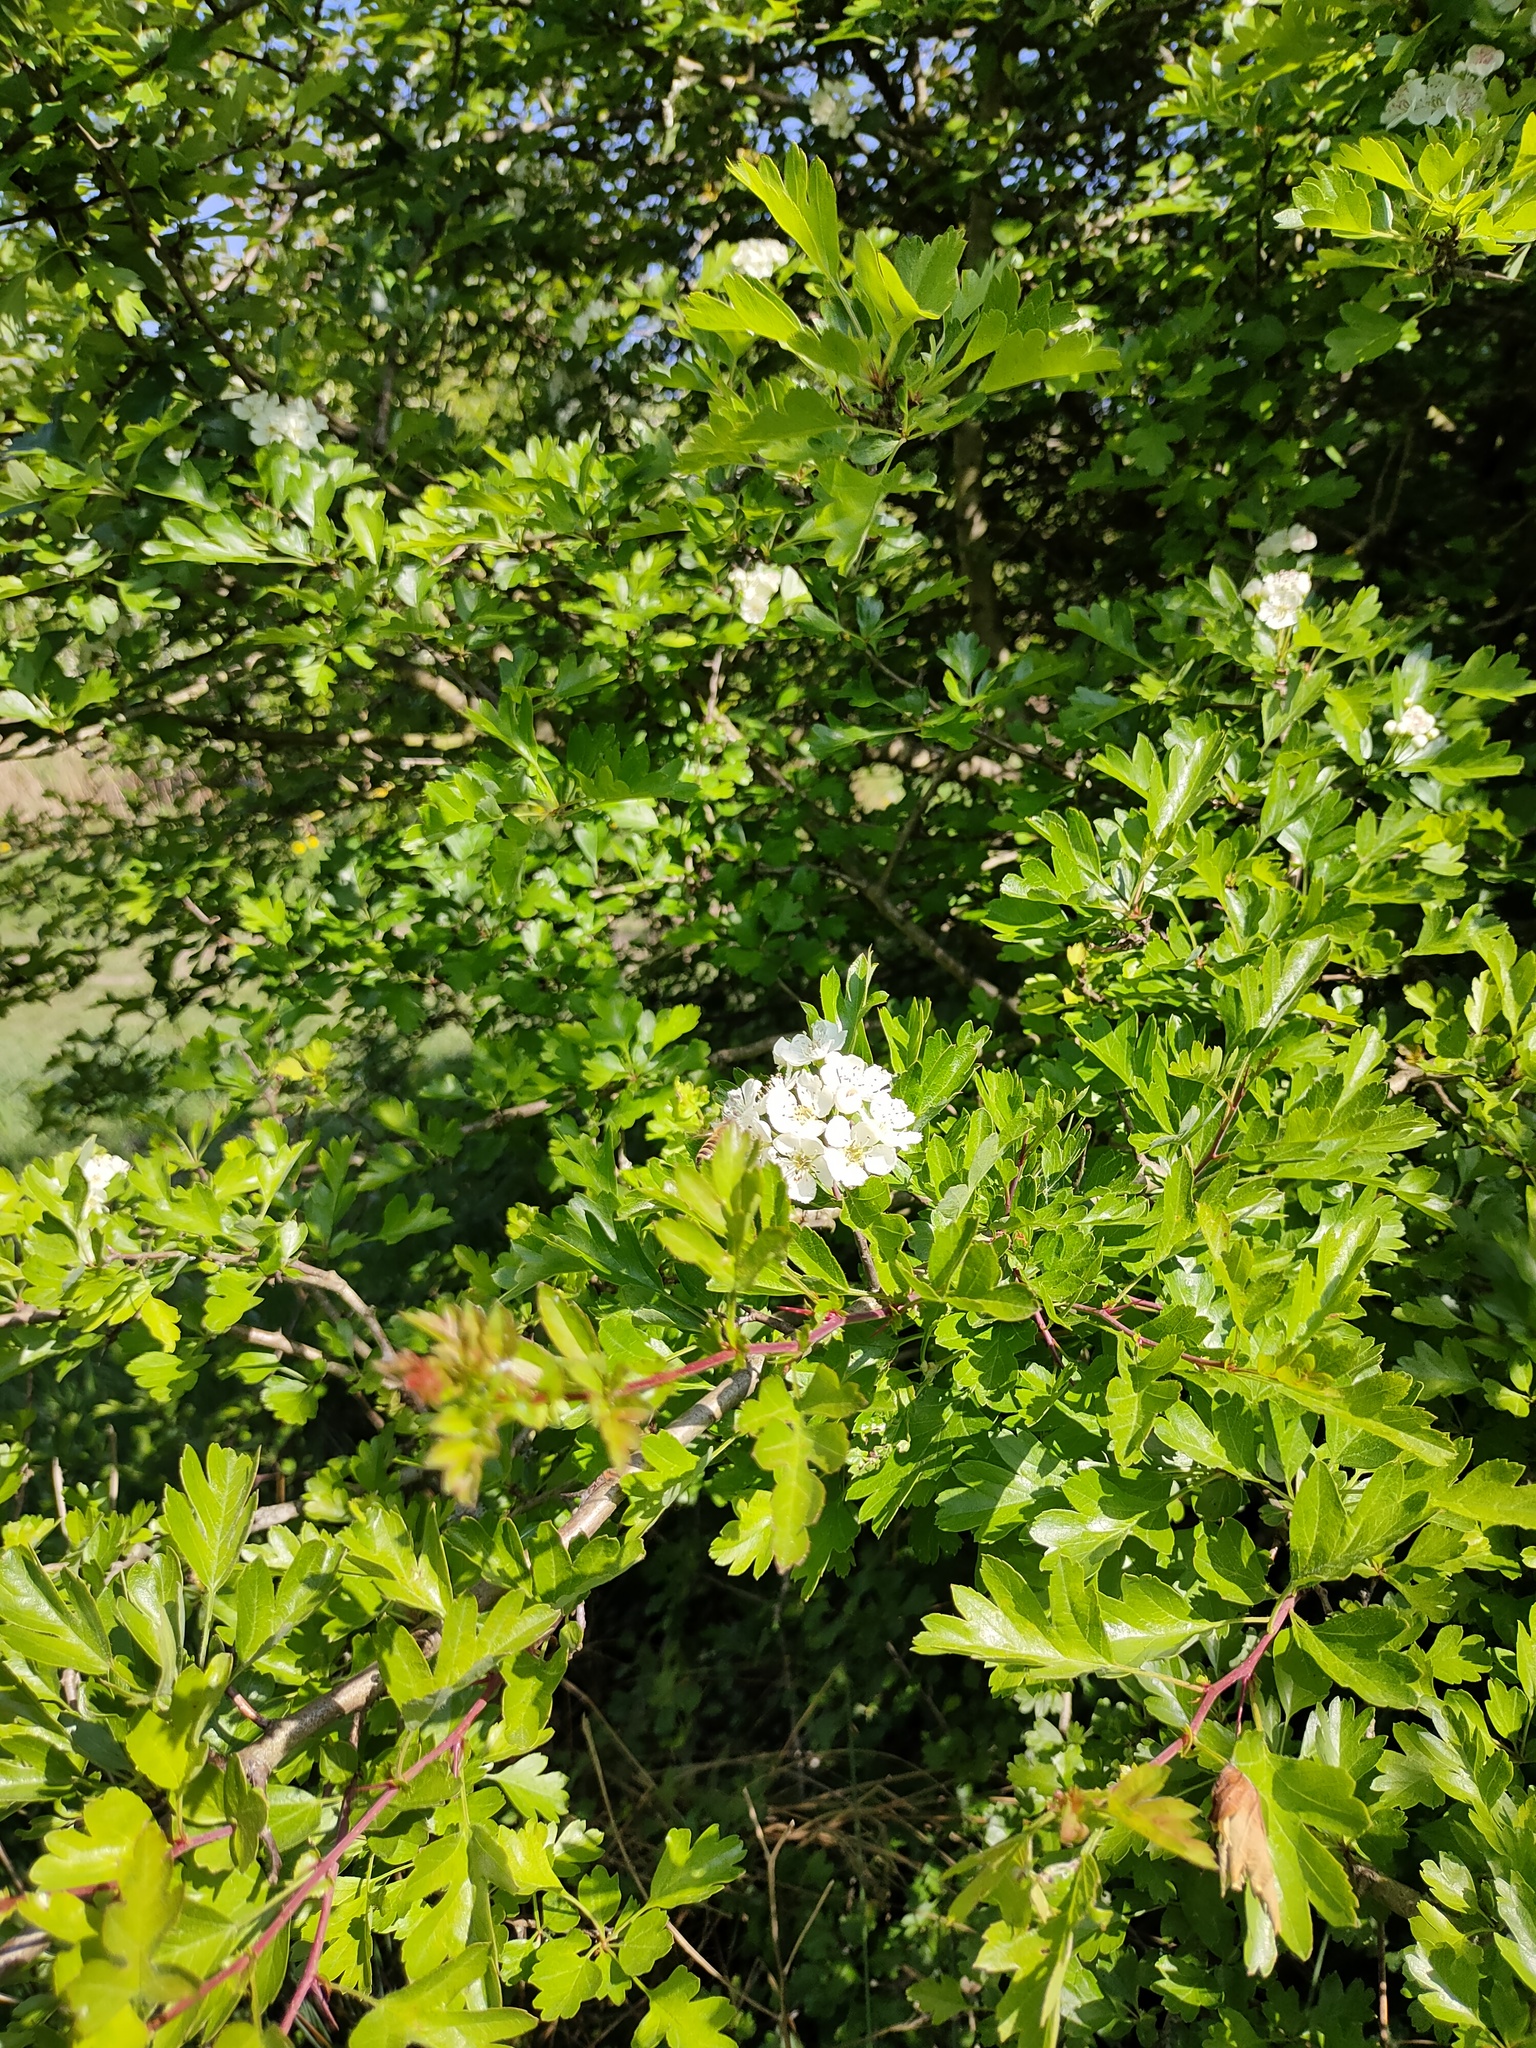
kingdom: Plantae
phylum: Tracheophyta
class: Magnoliopsida
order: Rosales
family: Rosaceae
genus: Crataegus
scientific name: Crataegus monogyna
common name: Hawthorn
